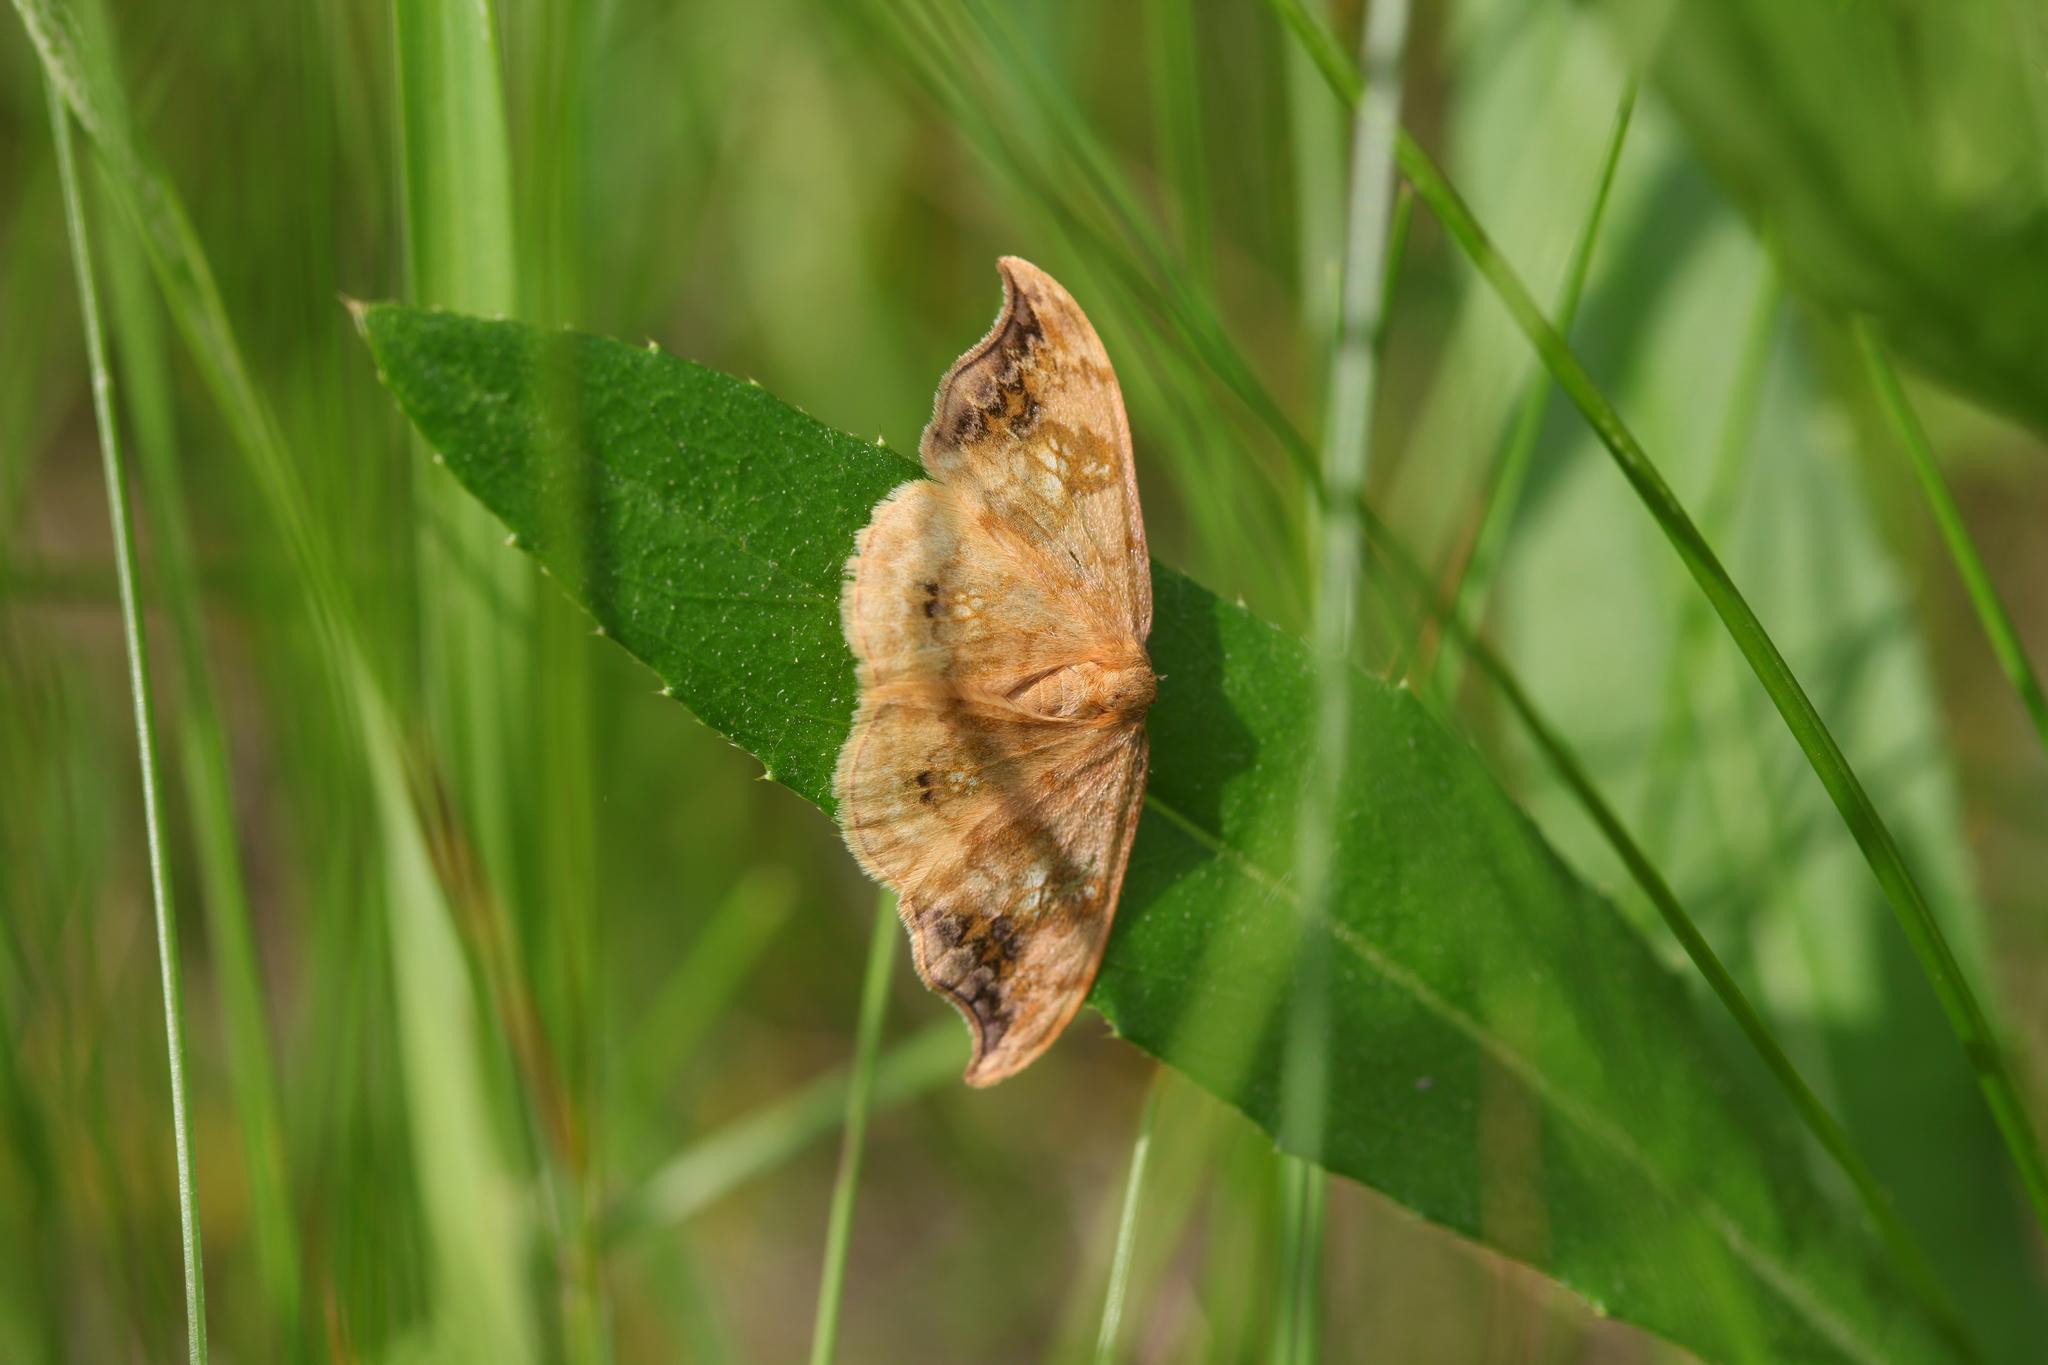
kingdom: Animalia
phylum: Arthropoda
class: Insecta
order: Lepidoptera
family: Drepanidae
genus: Sabra
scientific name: Sabra harpagula
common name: Scarce hook-tip
